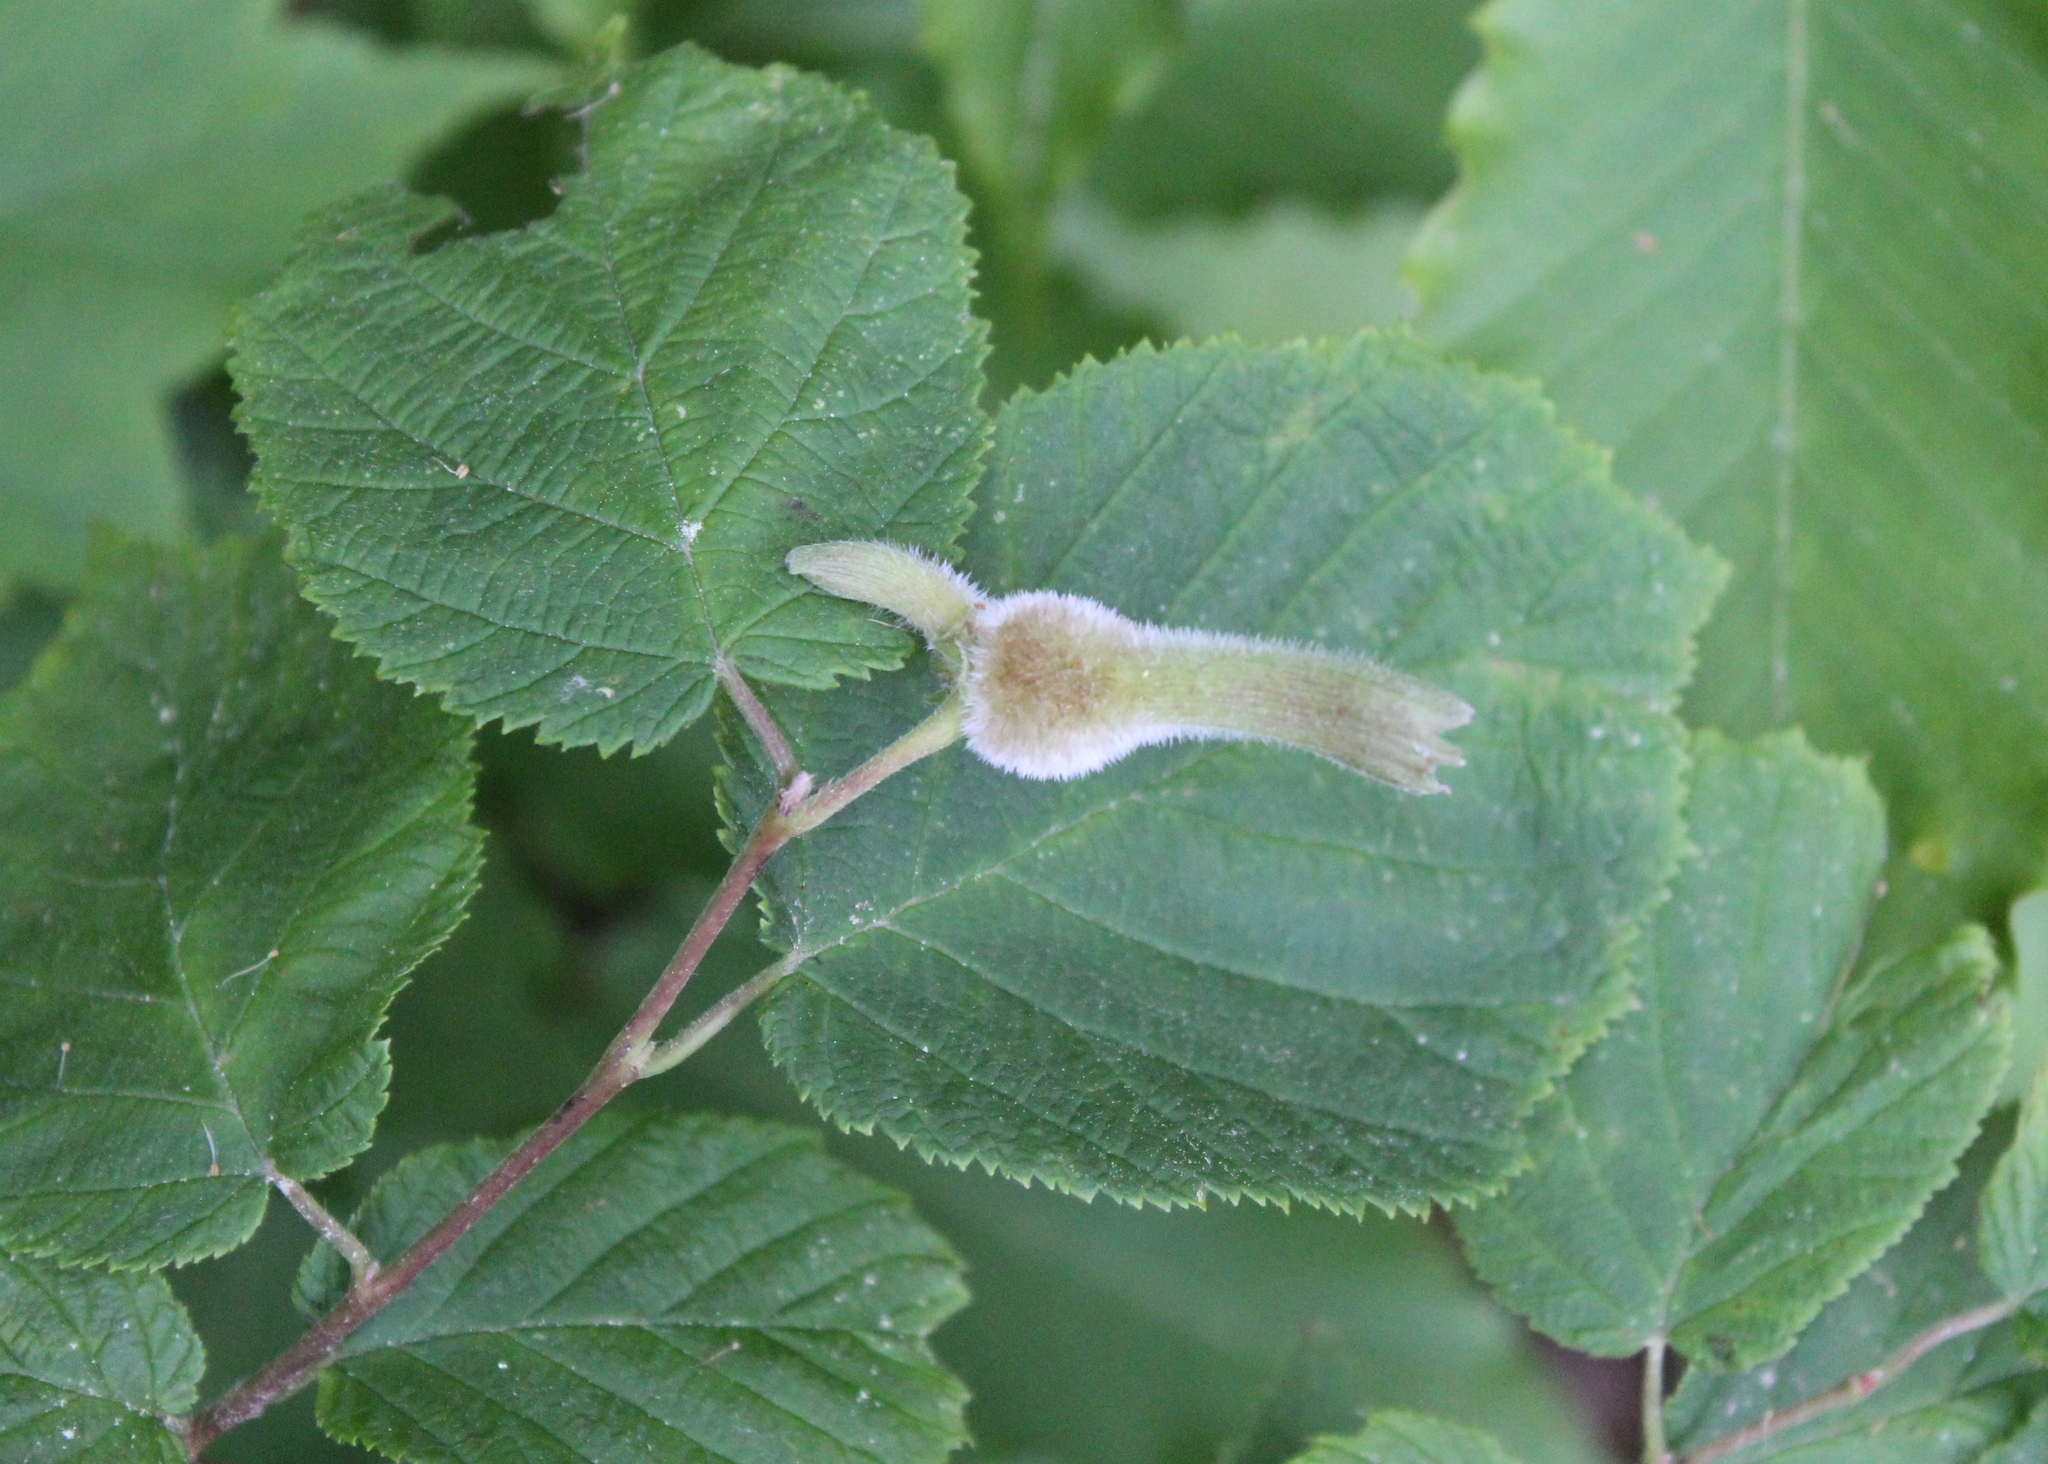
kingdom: Plantae
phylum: Tracheophyta
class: Magnoliopsida
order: Fagales
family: Betulaceae
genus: Corylus
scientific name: Corylus cornuta
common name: Beaked hazel
